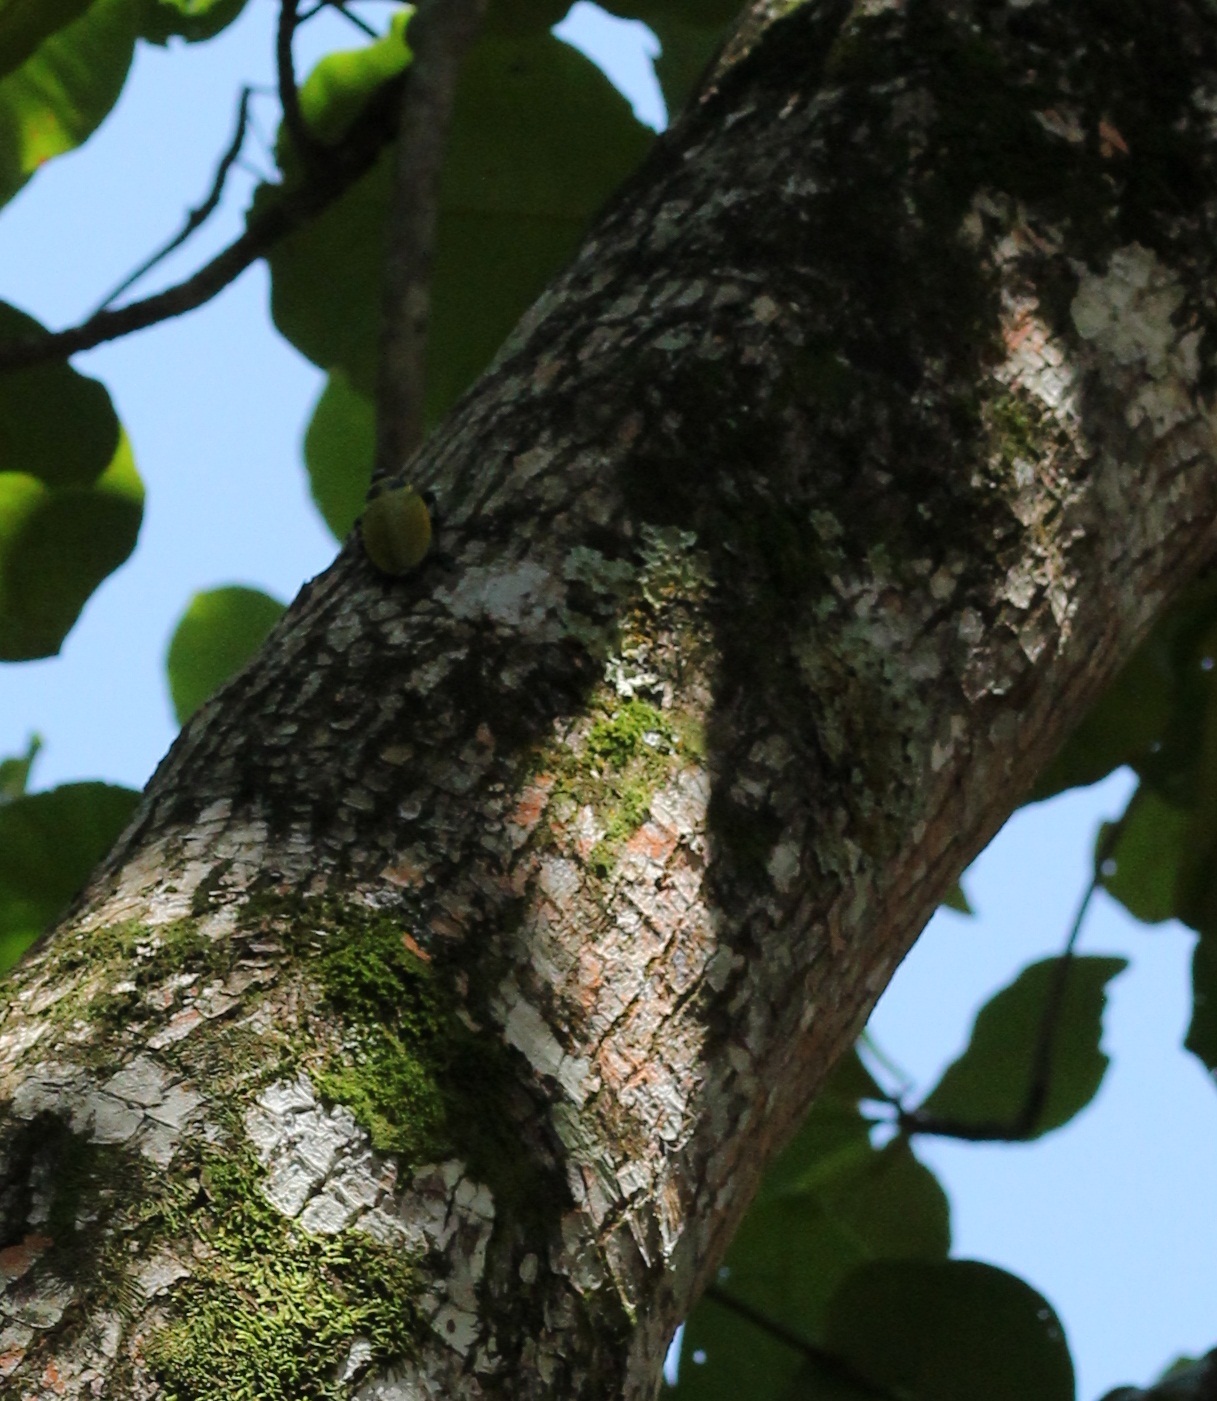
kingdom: Animalia
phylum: Arthropoda
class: Insecta
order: Coleoptera
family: Buprestidae
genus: Euchroma
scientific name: Euchroma giganteum
